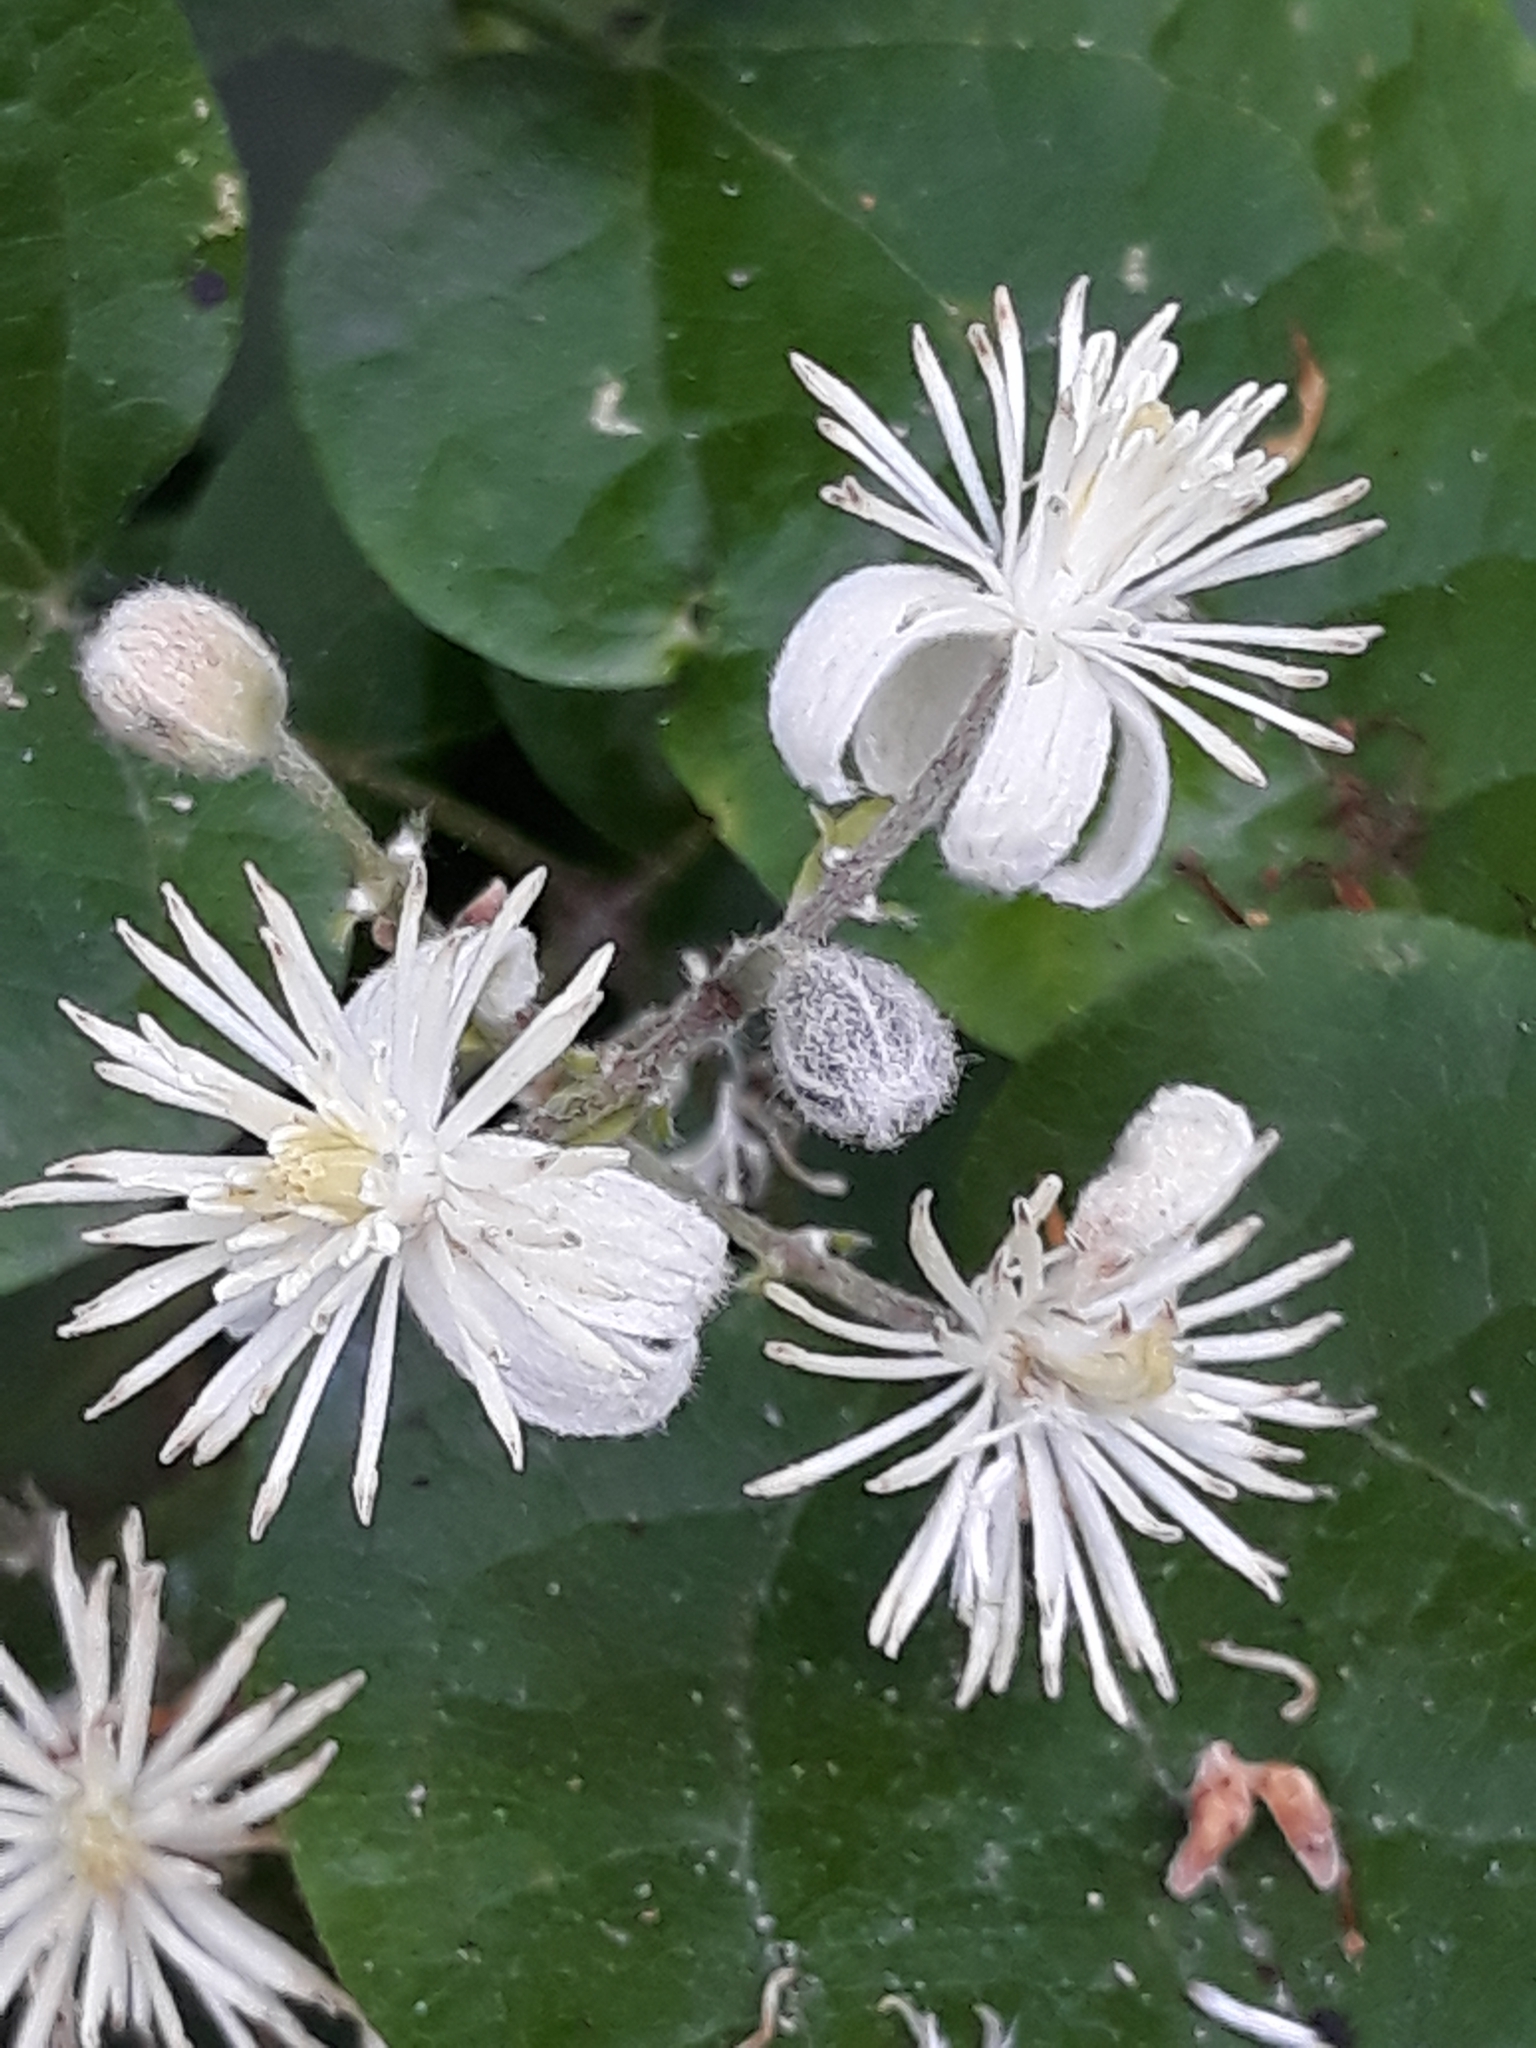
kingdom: Plantae
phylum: Tracheophyta
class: Magnoliopsida
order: Ranunculales
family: Ranunculaceae
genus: Clematis
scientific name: Clematis vitalba
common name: Evergreen clematis
